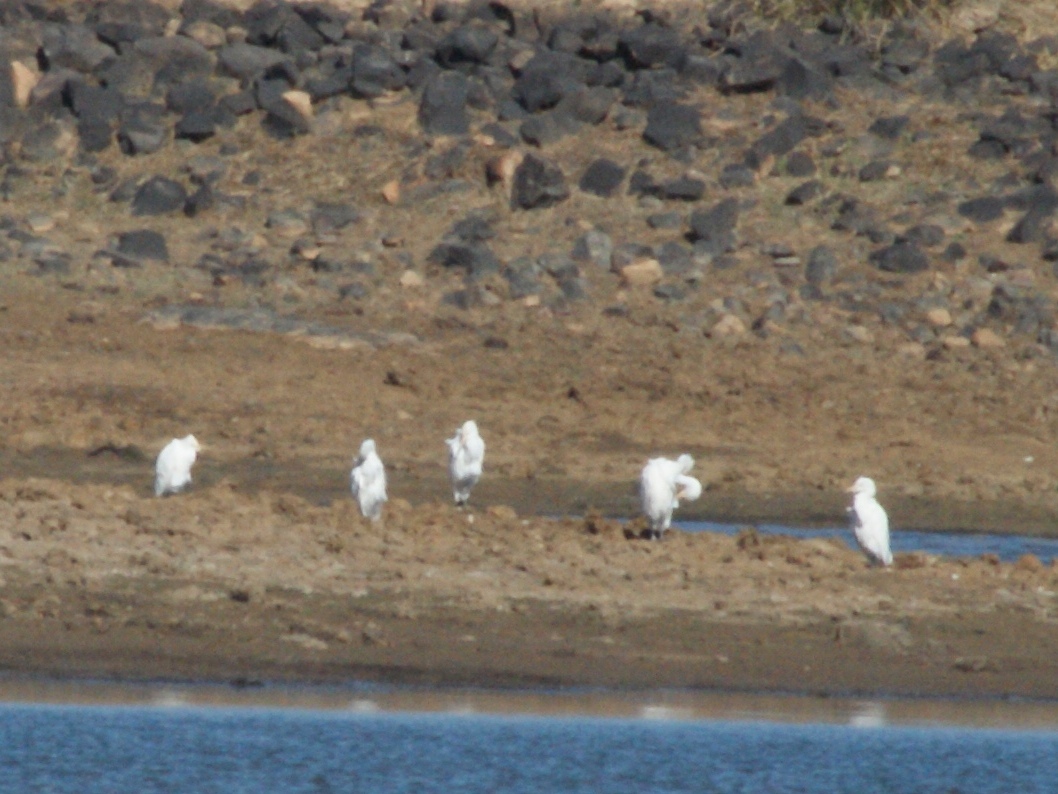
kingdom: Animalia
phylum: Chordata
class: Aves
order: Pelecaniformes
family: Ardeidae
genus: Bubulcus
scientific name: Bubulcus ibis
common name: Cattle egret
